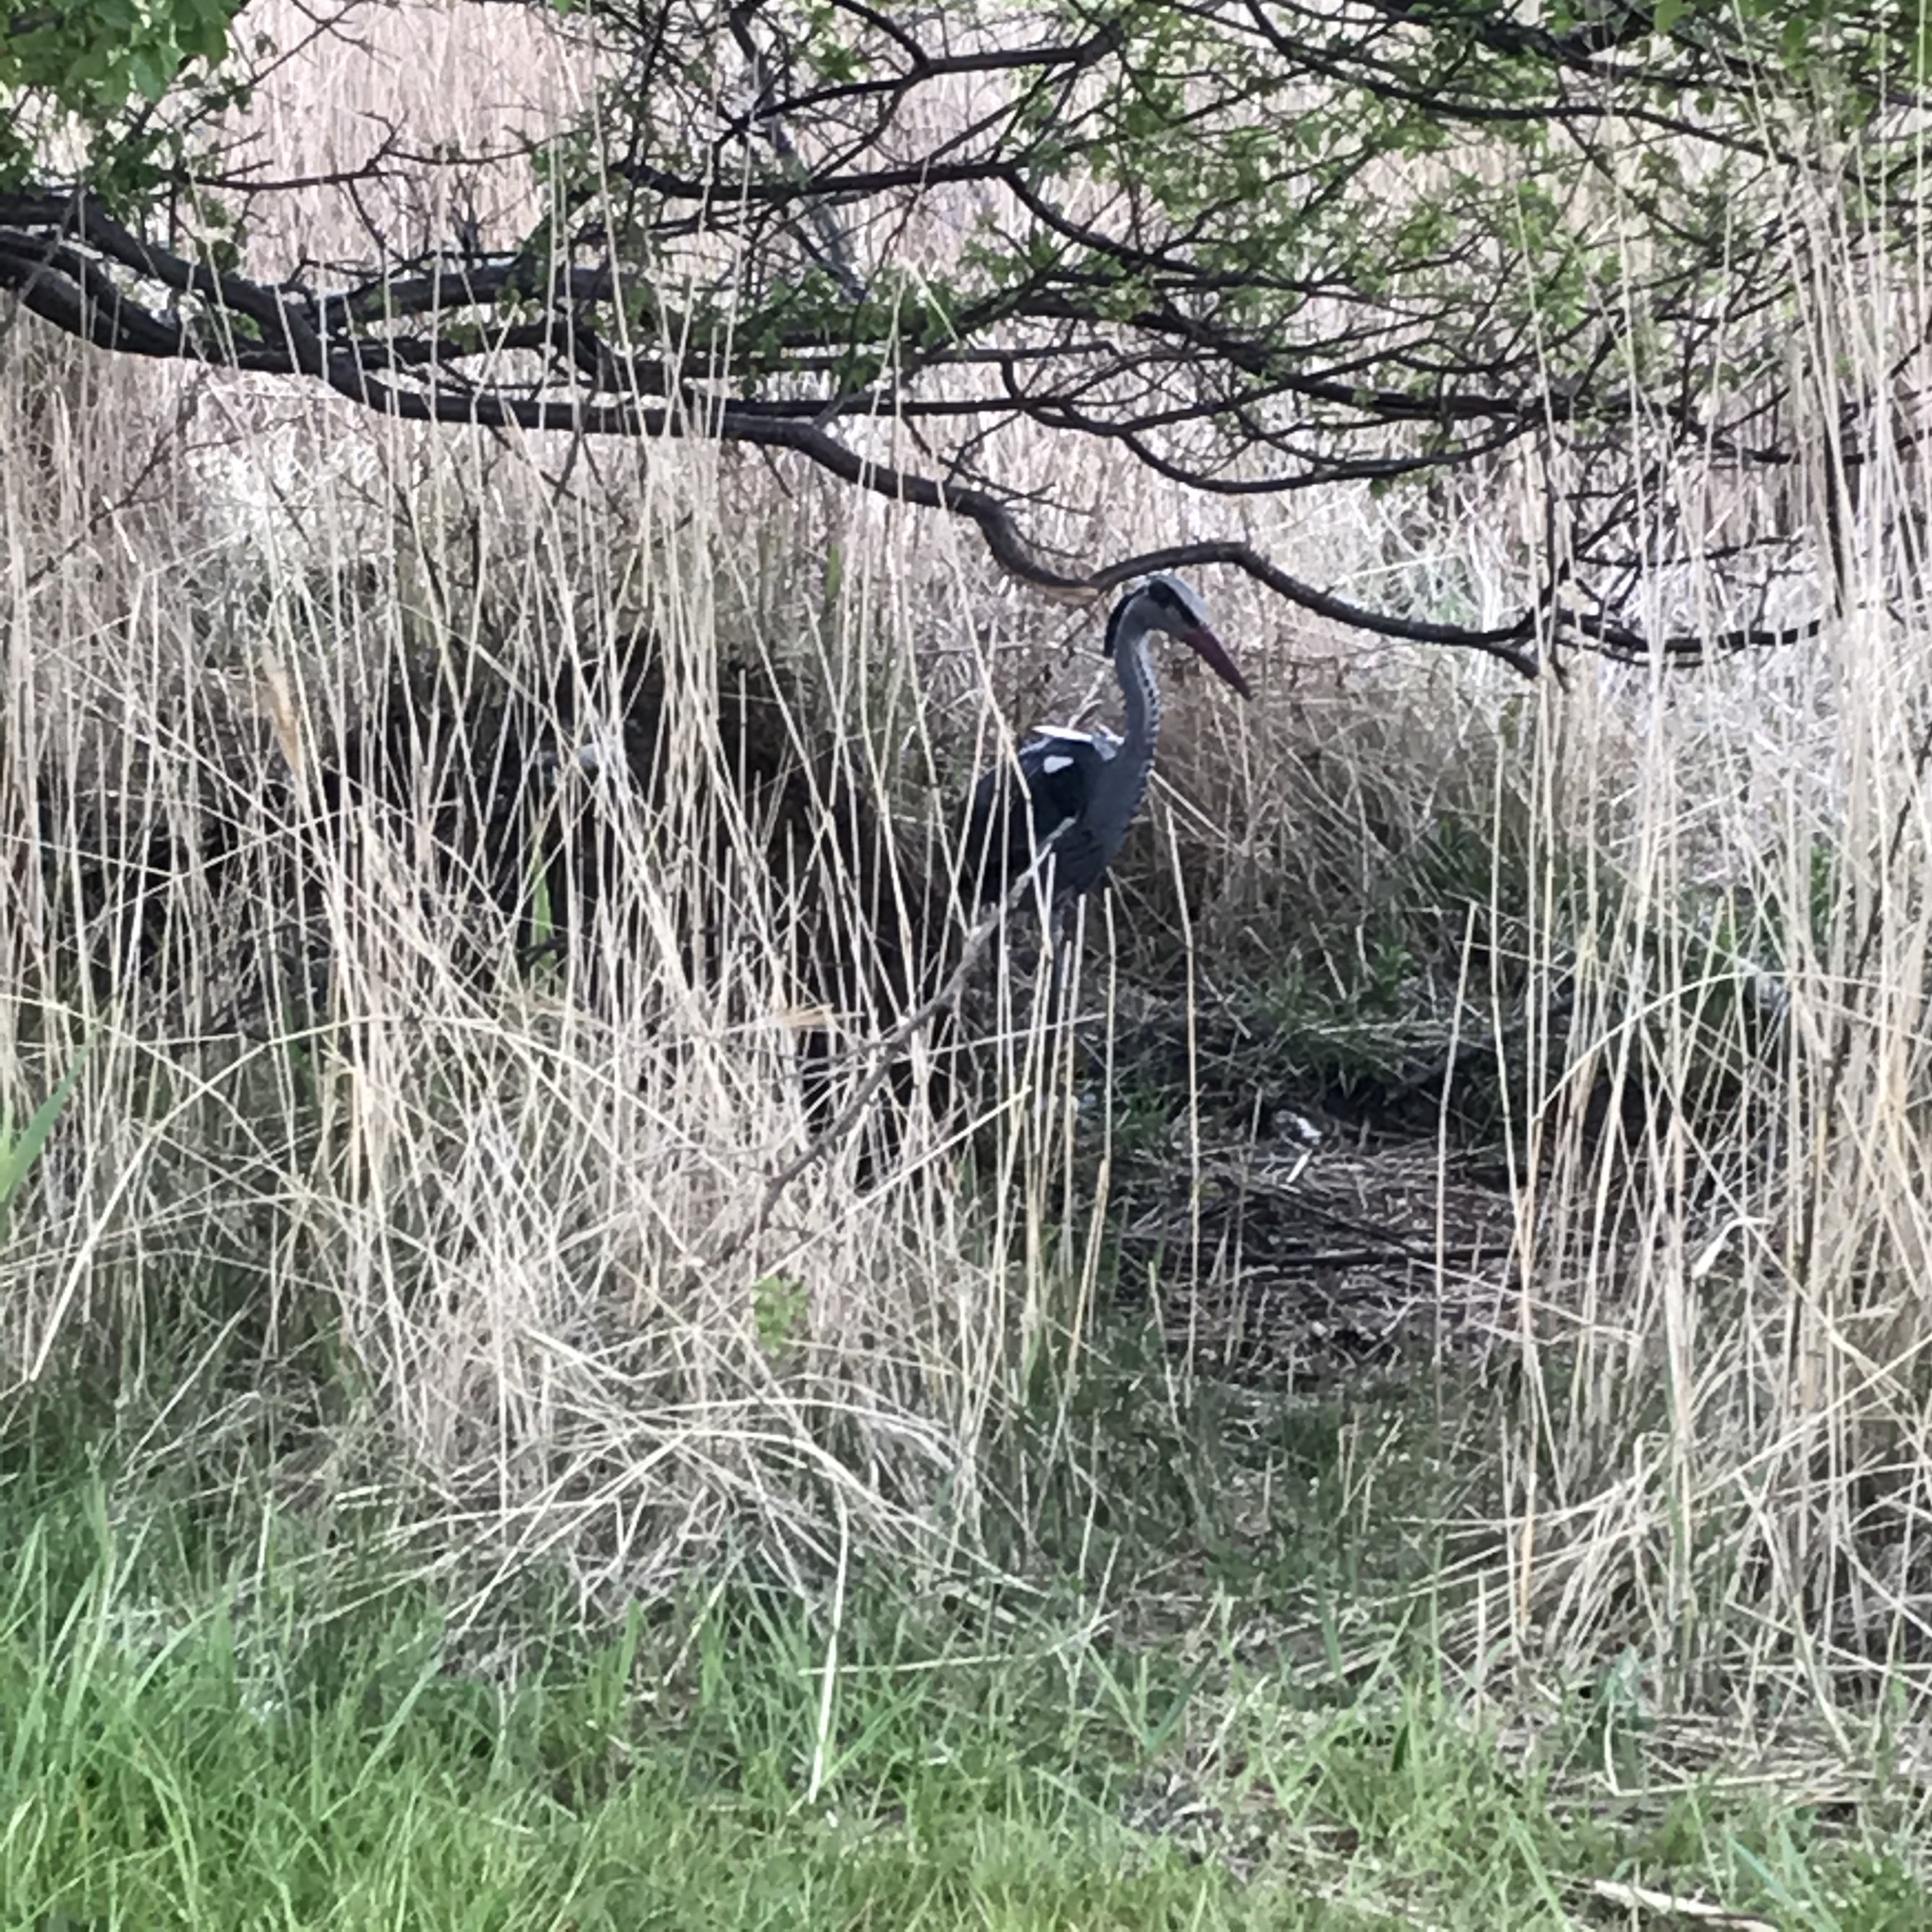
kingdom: Animalia
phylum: Chordata
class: Aves
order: Pelecaniformes
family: Ardeidae
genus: Ardea
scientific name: Ardea cinerea
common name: Grey heron
